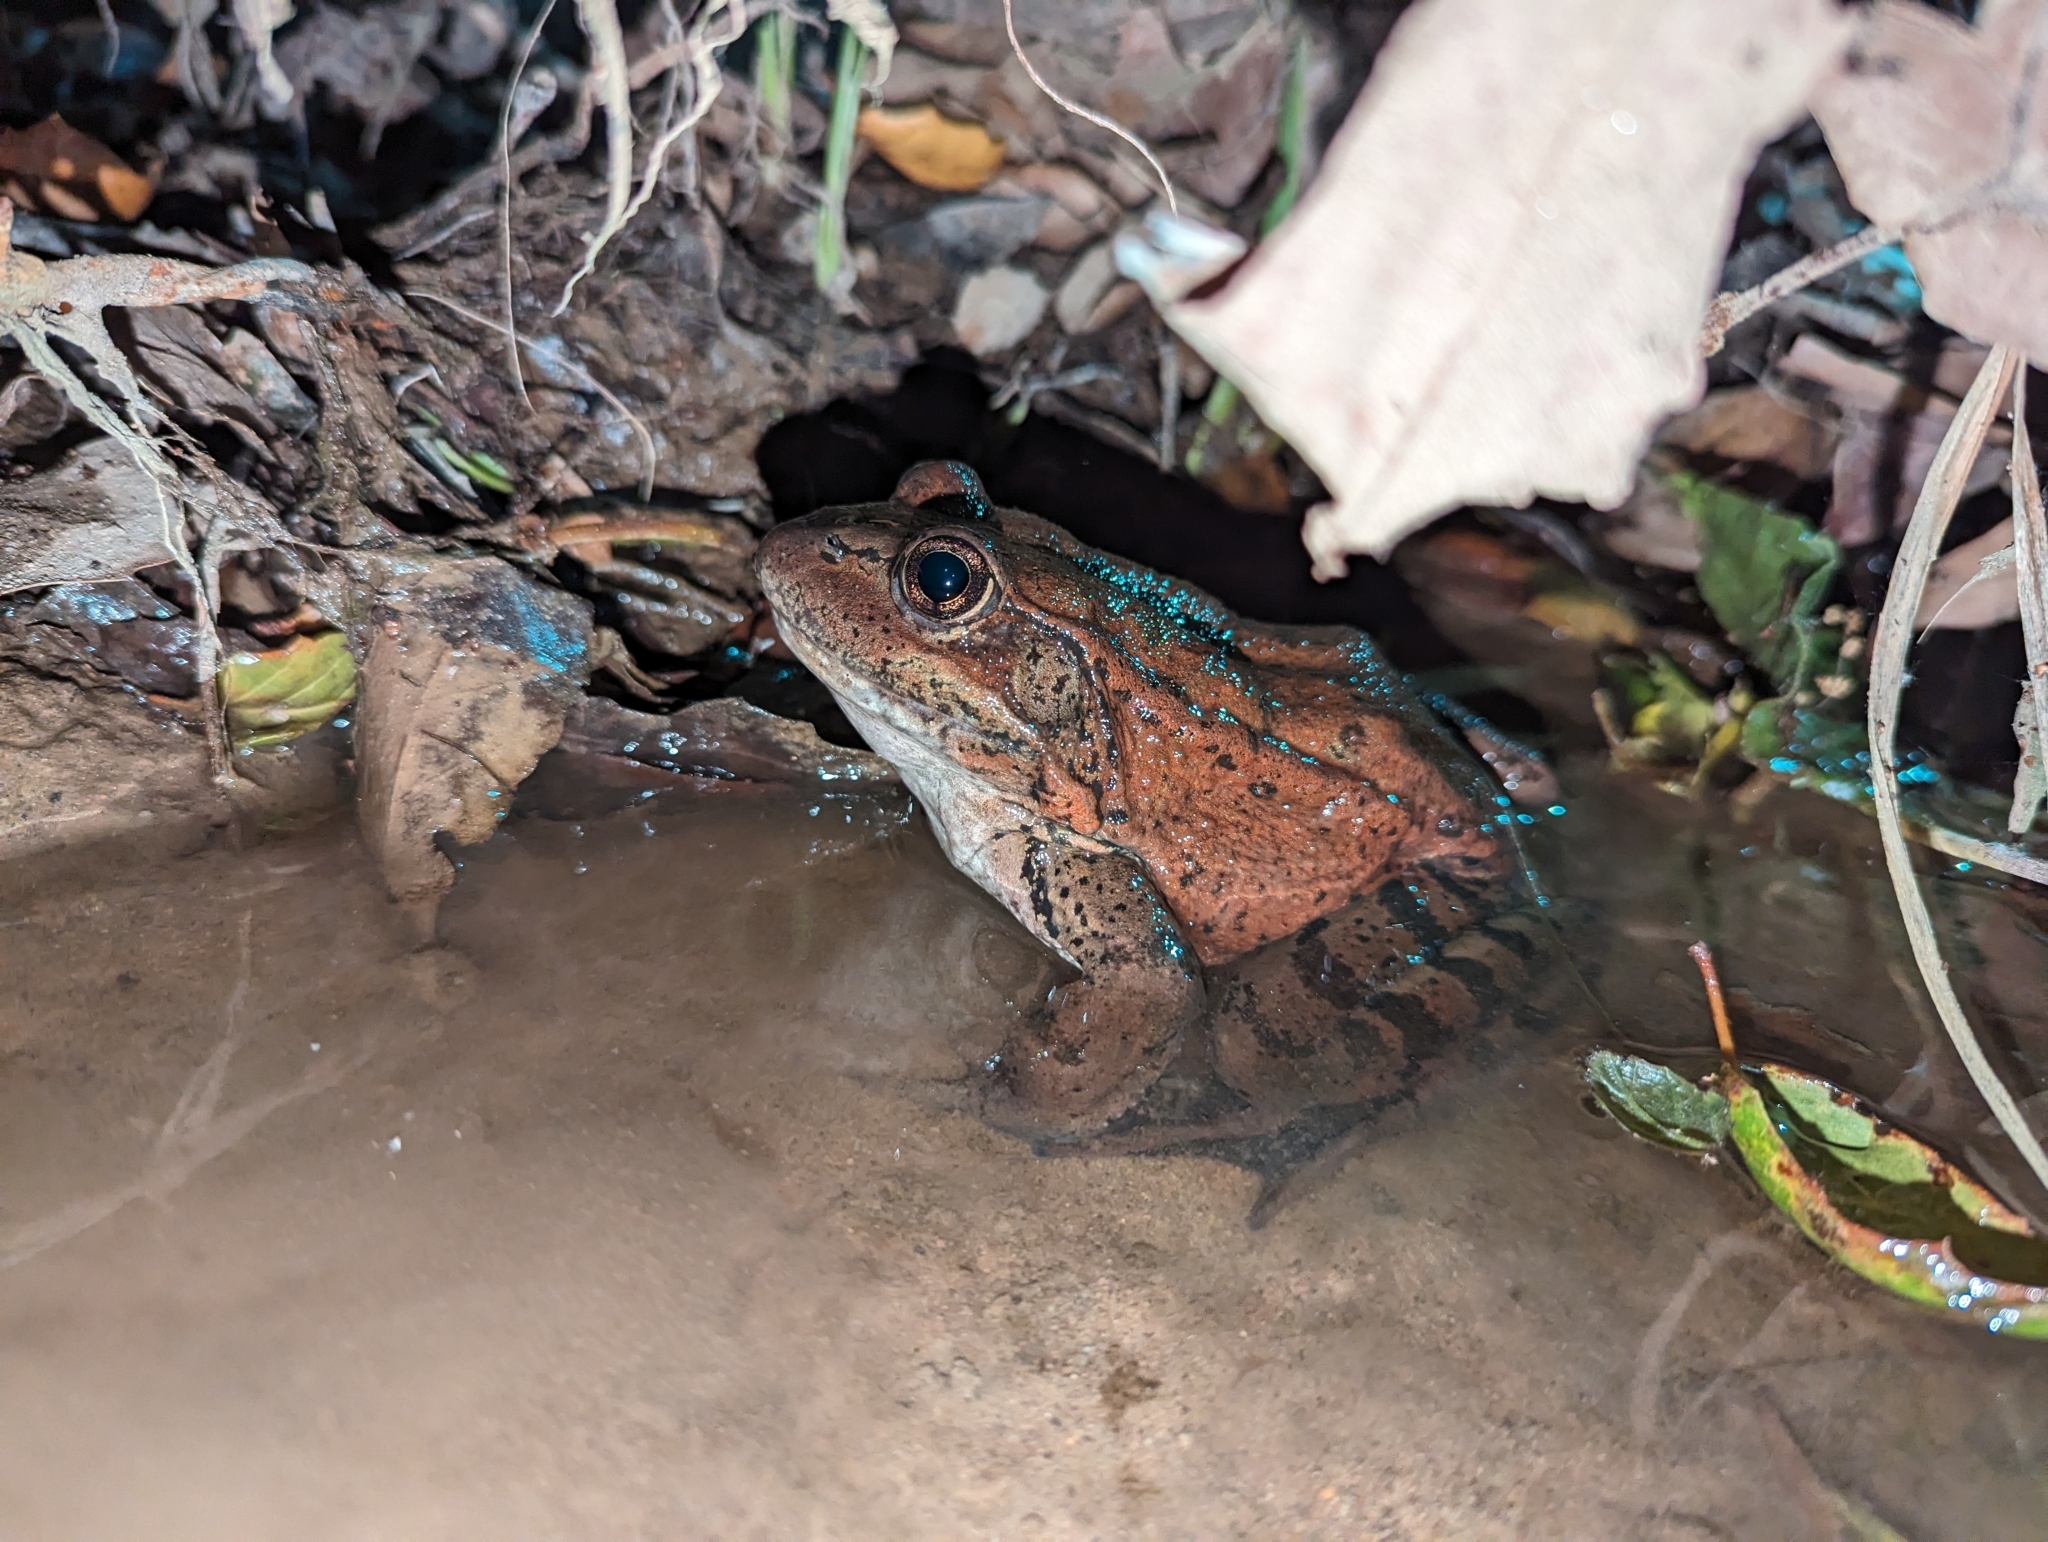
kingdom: Animalia
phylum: Chordata
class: Amphibia
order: Anura
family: Ranidae
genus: Rana
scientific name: Rana draytonii
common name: California red-legged frog
